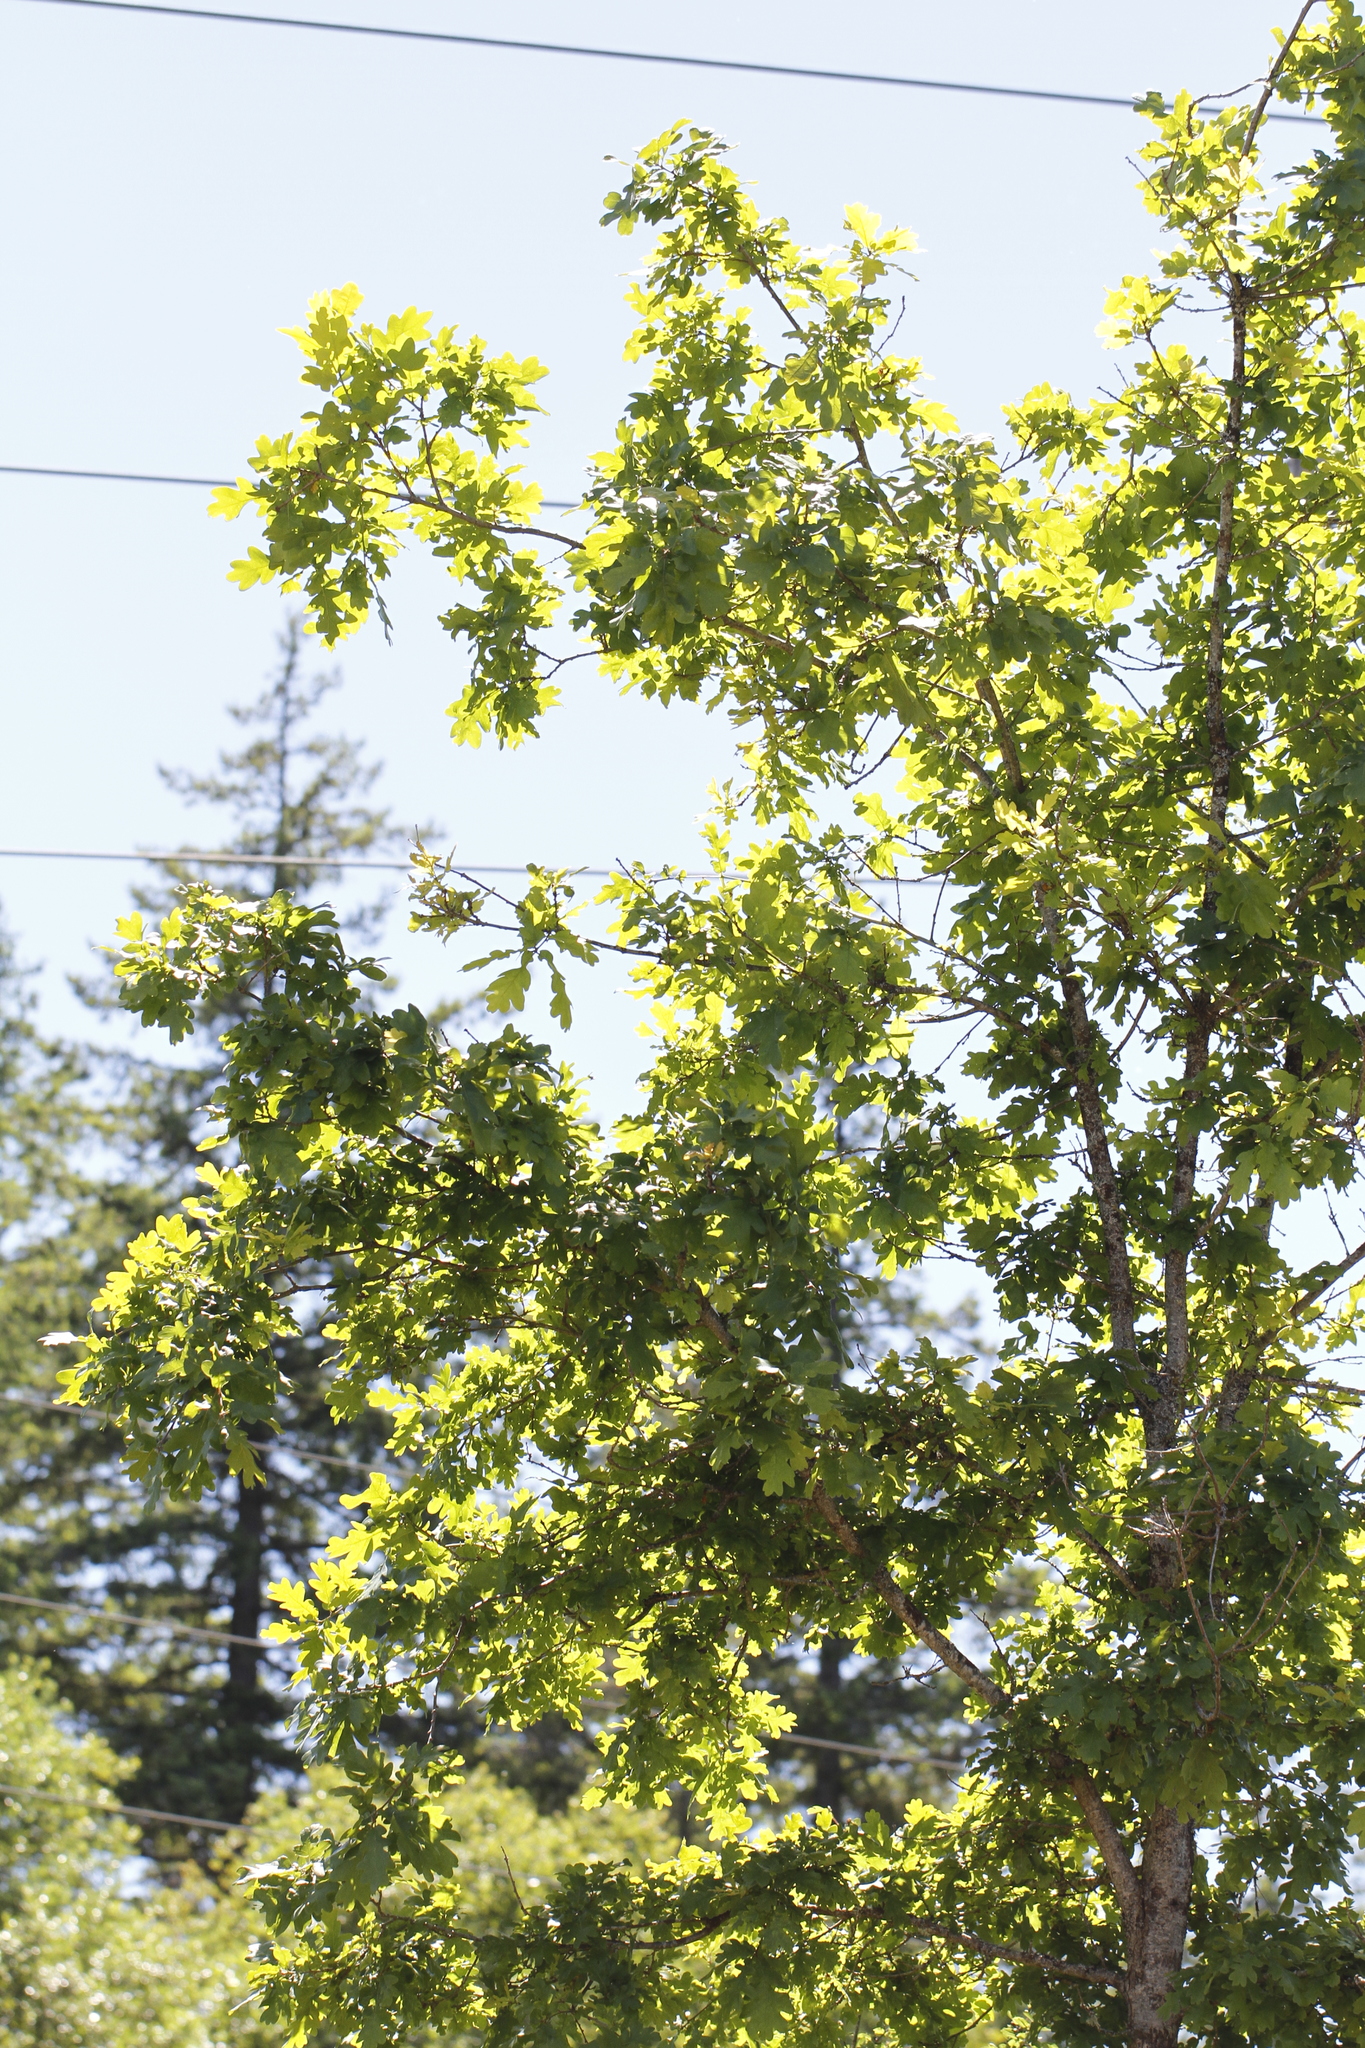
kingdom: Plantae
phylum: Tracheophyta
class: Magnoliopsida
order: Fagales
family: Fagaceae
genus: Quercus
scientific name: Quercus garryana
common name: Garry oak
